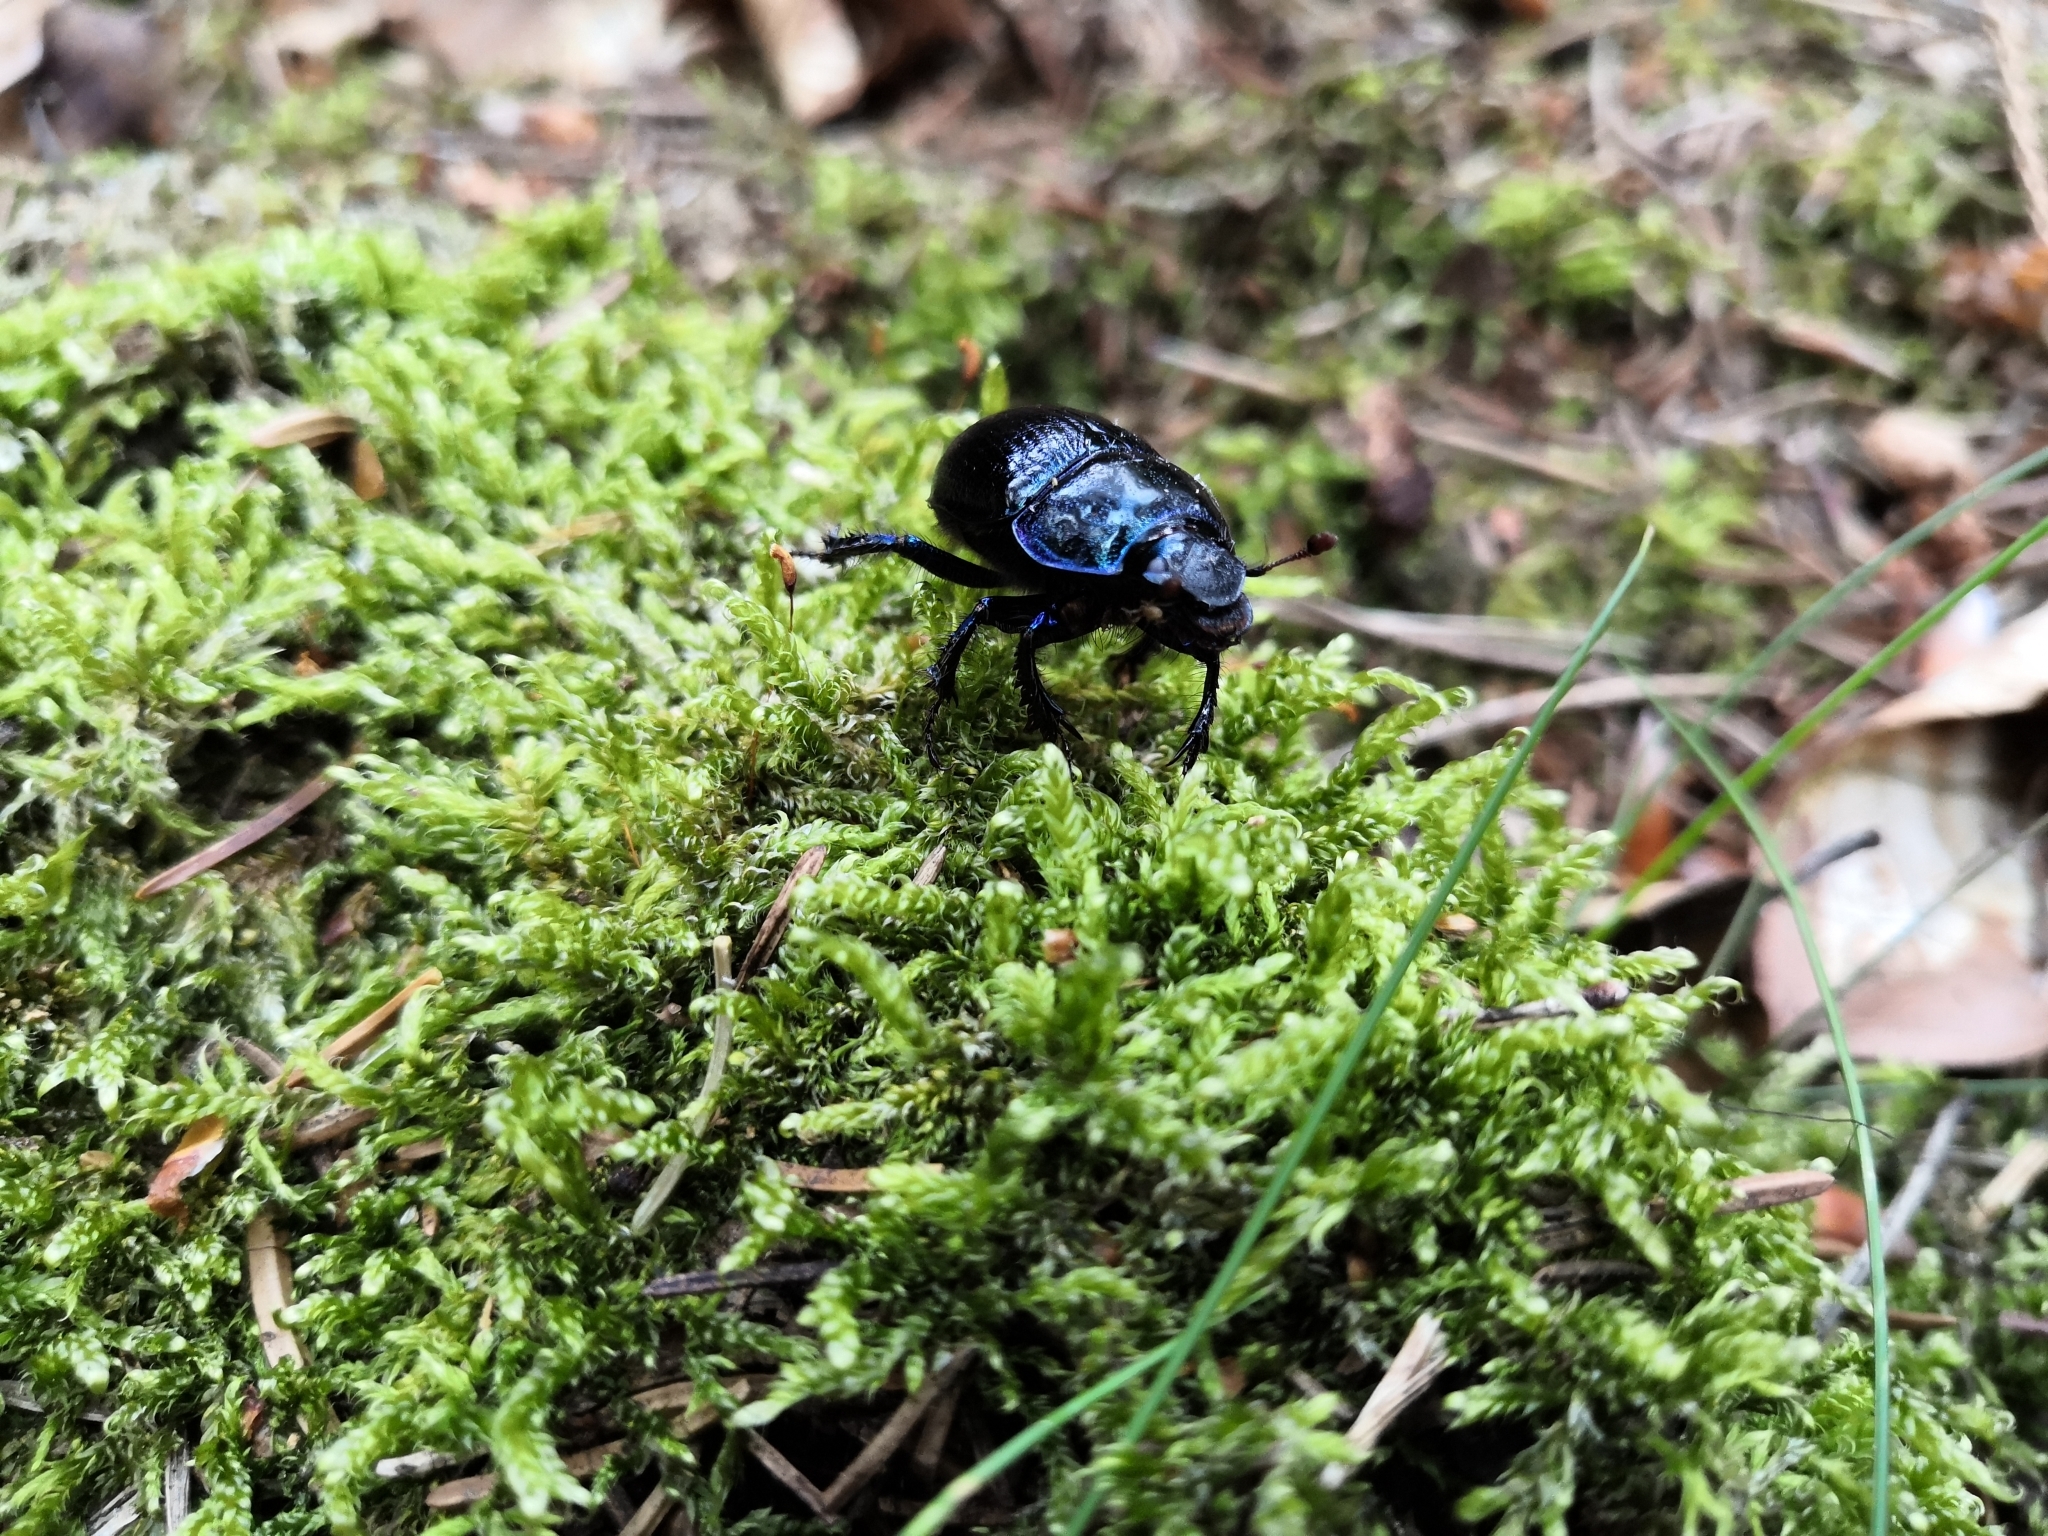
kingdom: Animalia
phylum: Arthropoda
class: Insecta
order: Coleoptera
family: Geotrupidae
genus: Anoplotrupes
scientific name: Anoplotrupes stercorosus
